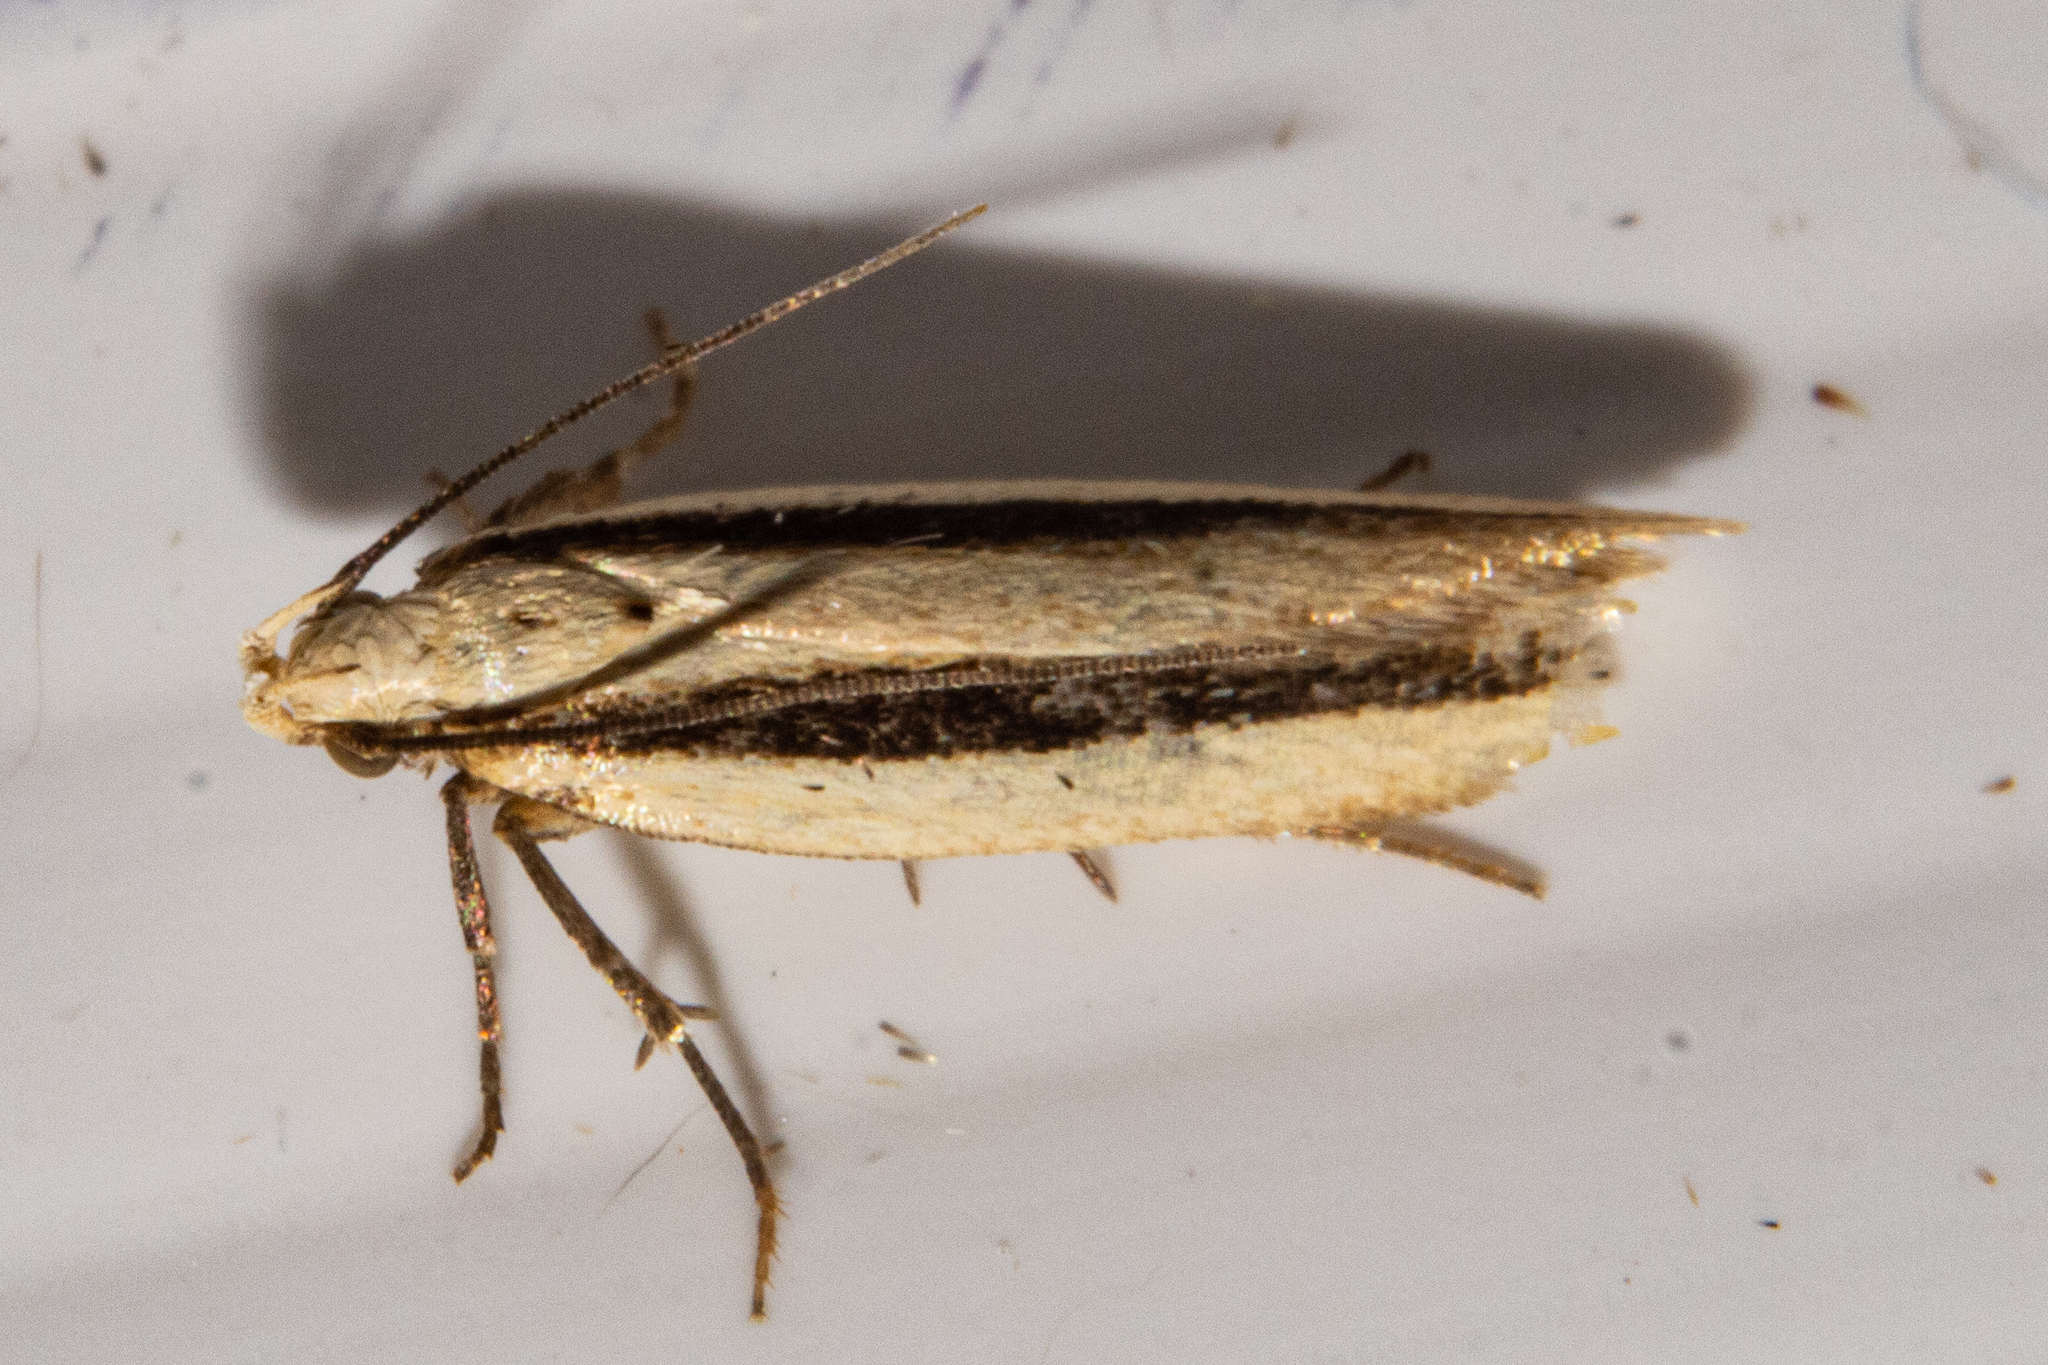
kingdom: Animalia
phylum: Arthropoda
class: Insecta
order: Lepidoptera
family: Gelechiidae
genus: Kiwaia
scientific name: Kiwaia monophragma
